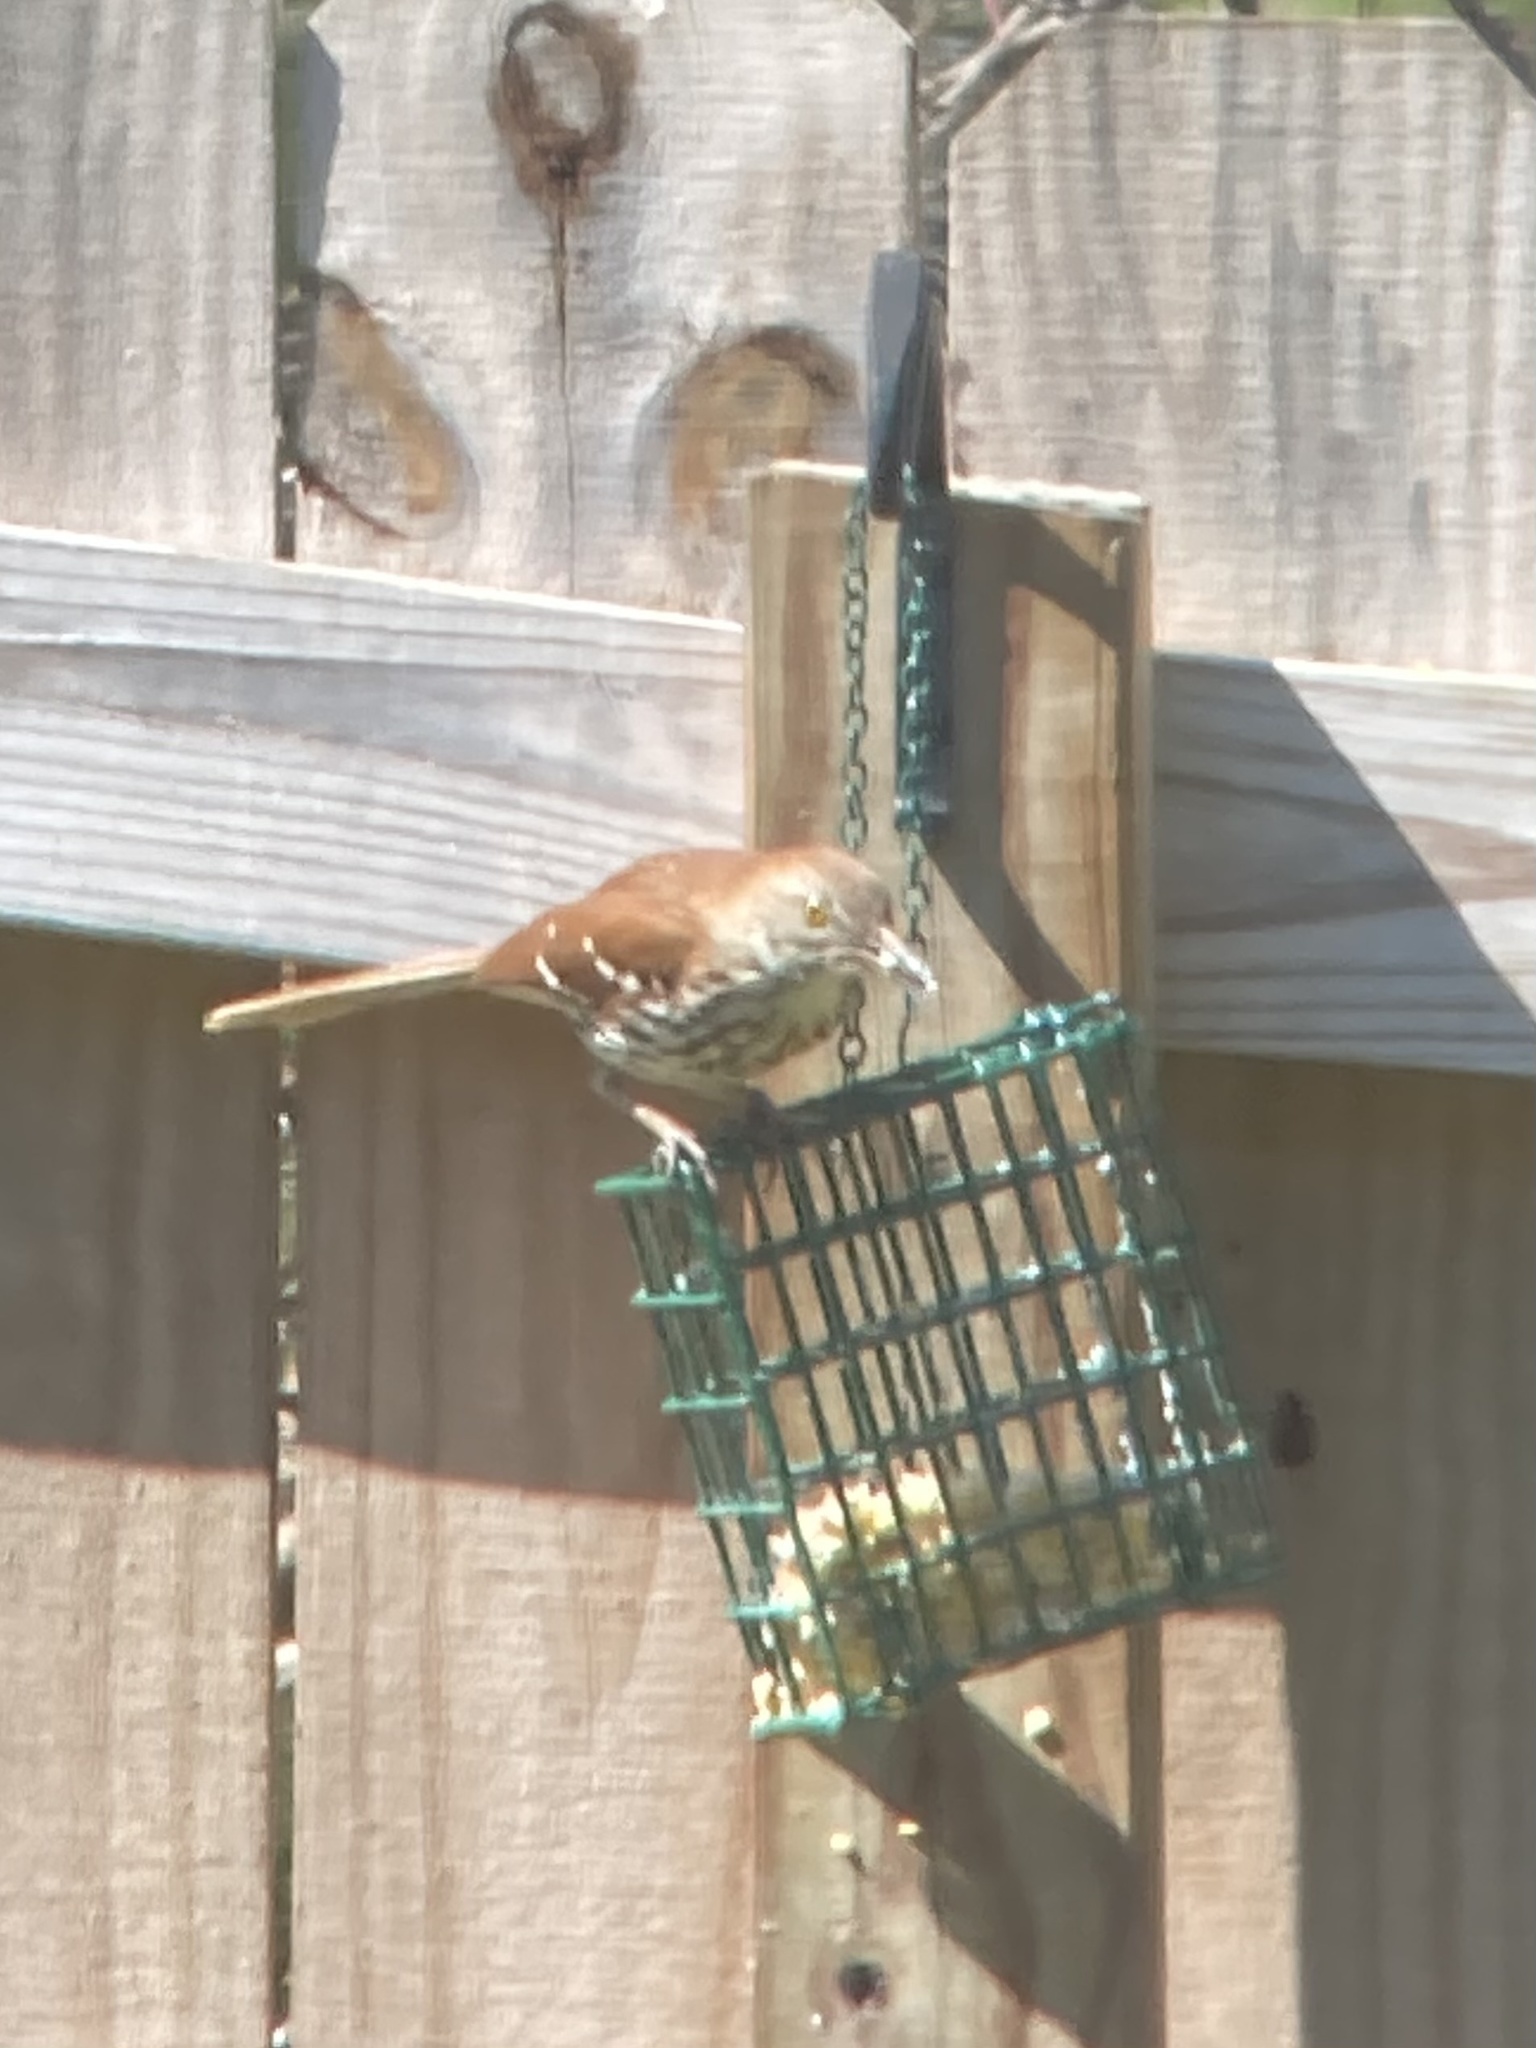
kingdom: Animalia
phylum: Chordata
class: Aves
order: Passeriformes
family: Mimidae
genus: Toxostoma
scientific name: Toxostoma rufum
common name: Brown thrasher
